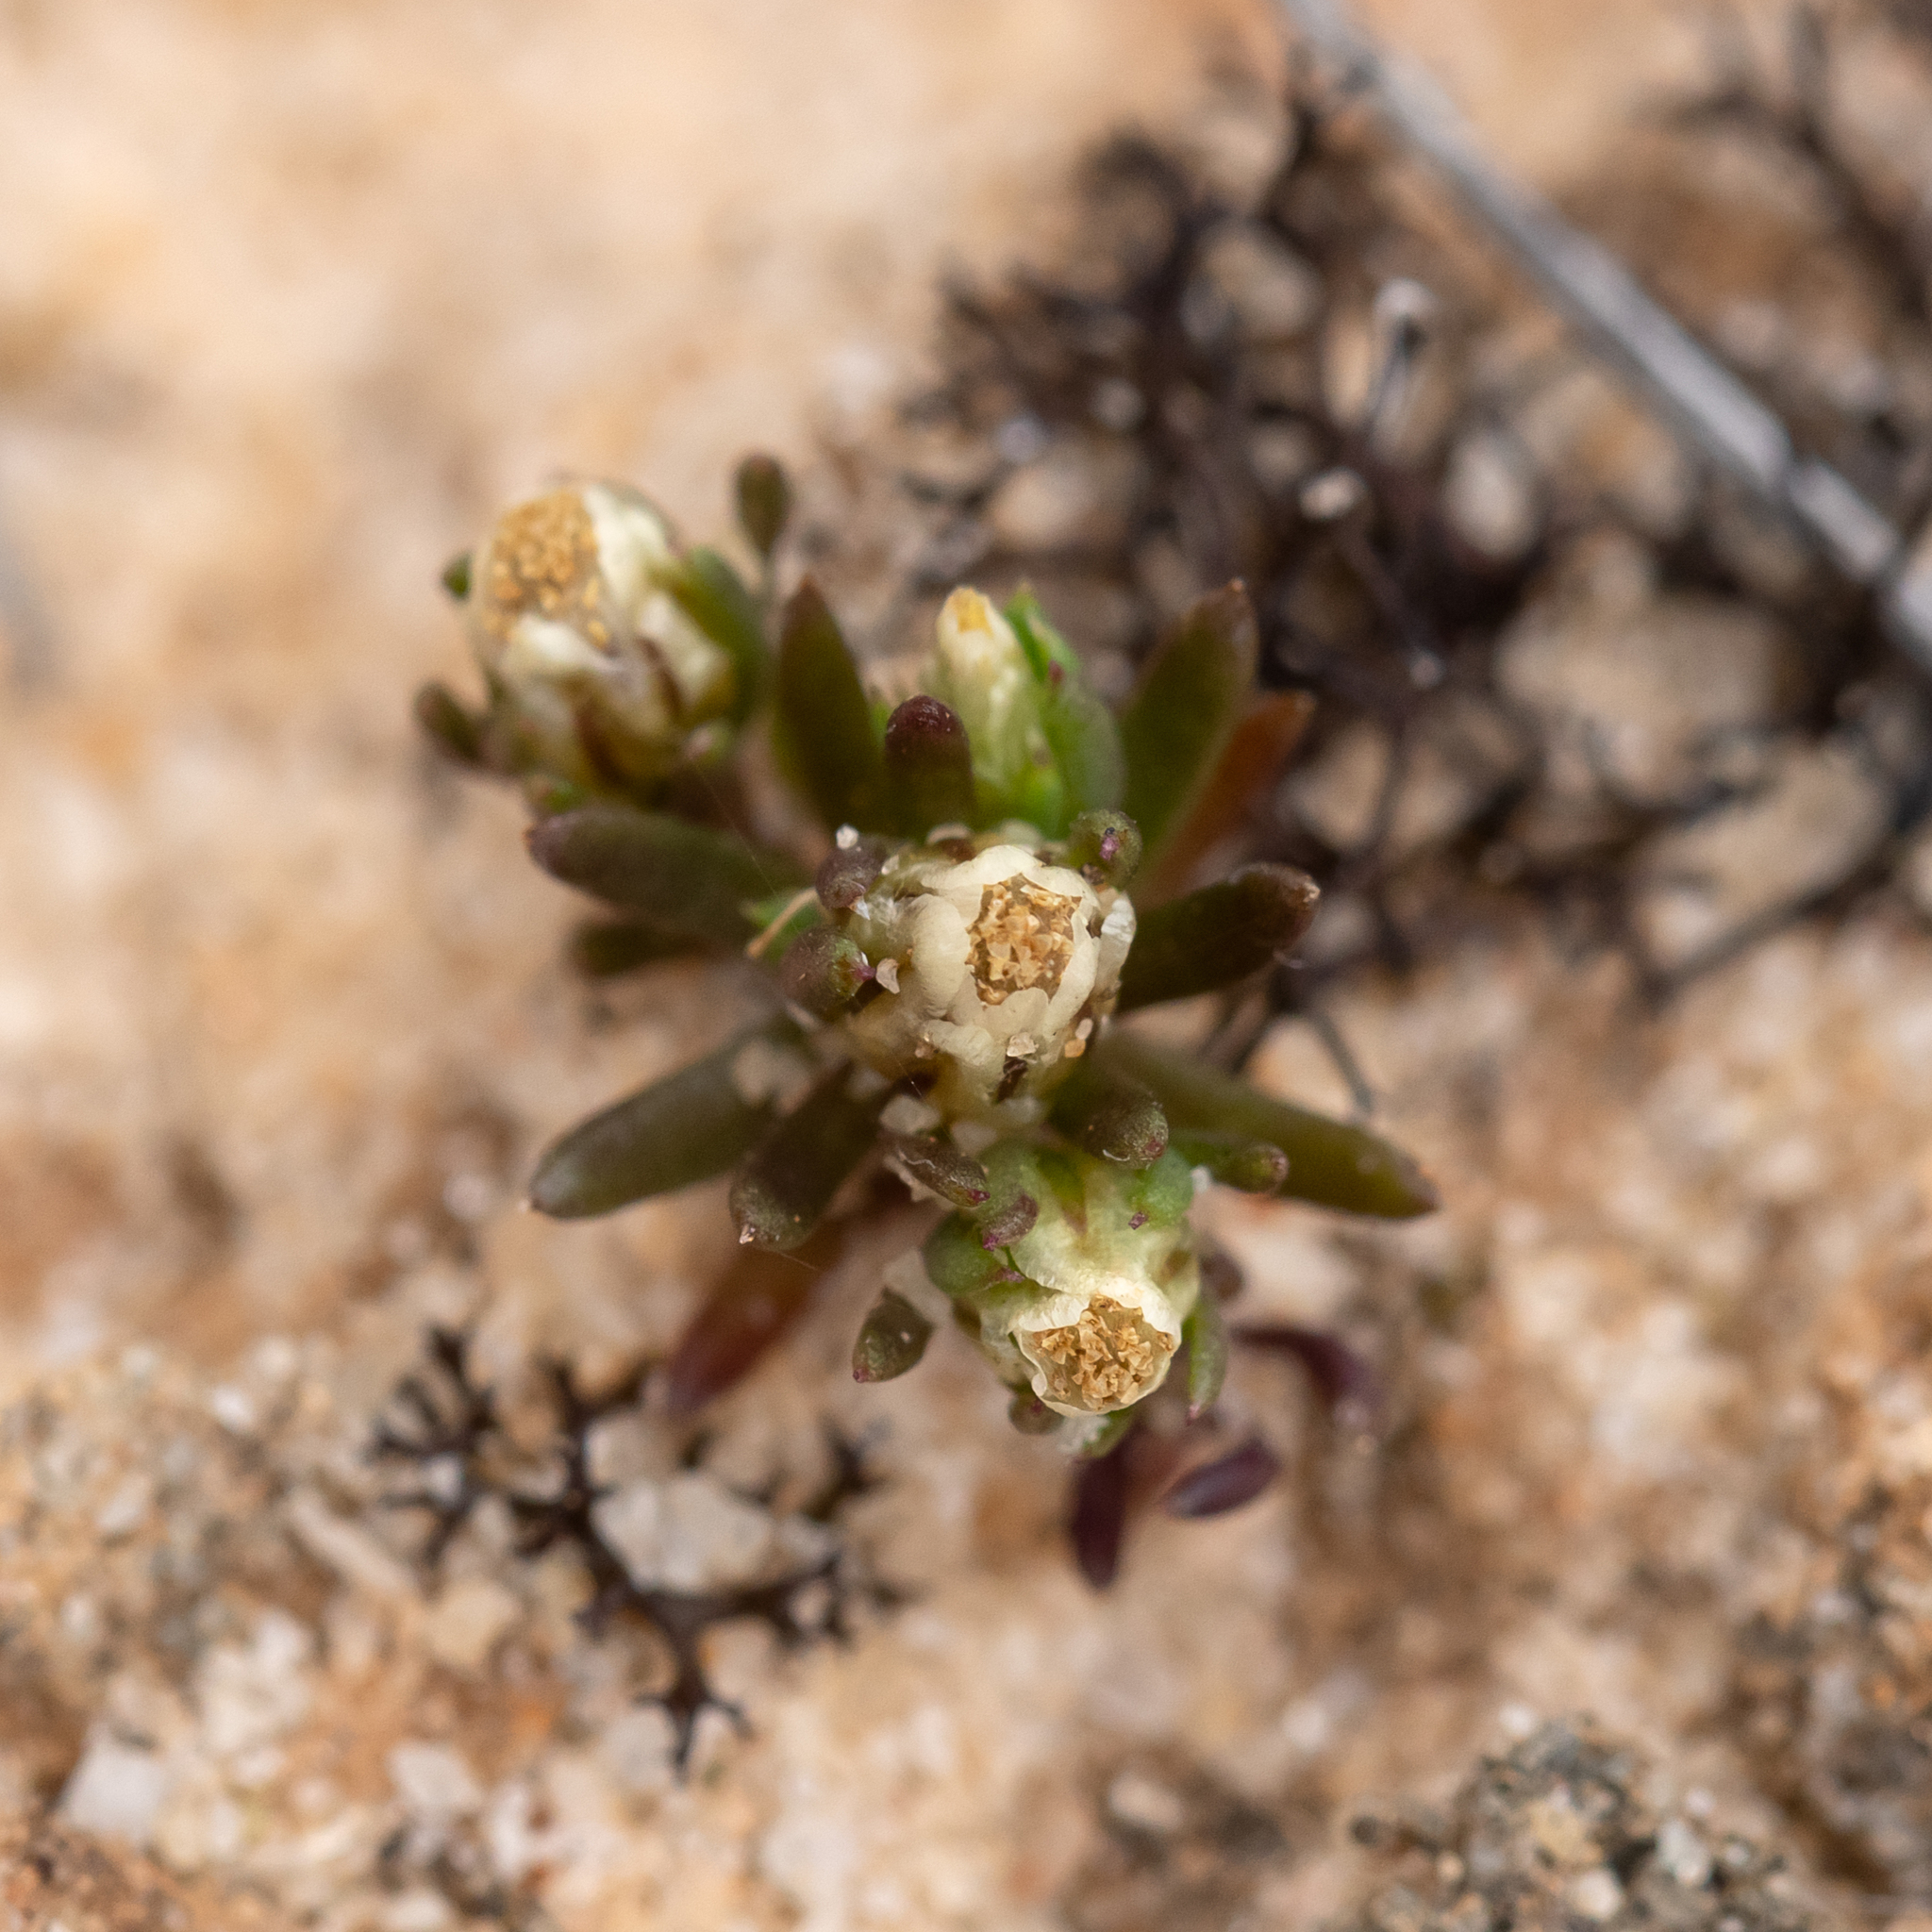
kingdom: Plantae
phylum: Tracheophyta
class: Magnoliopsida
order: Asterales
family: Asteraceae
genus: Hyalosperma
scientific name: Hyalosperma demissum
